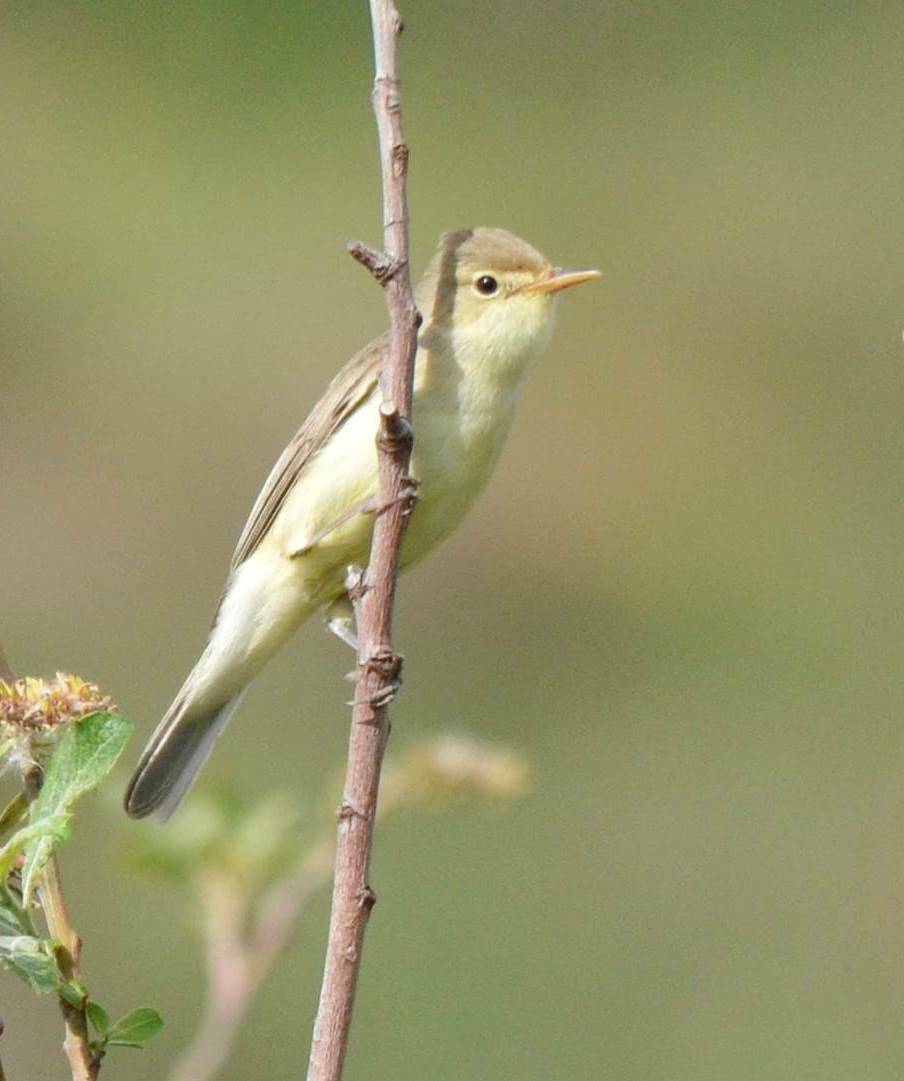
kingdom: Animalia
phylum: Chordata
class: Aves
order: Passeriformes
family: Acrocephalidae
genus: Hippolais
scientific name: Hippolais polyglotta
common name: Melodious warbler
